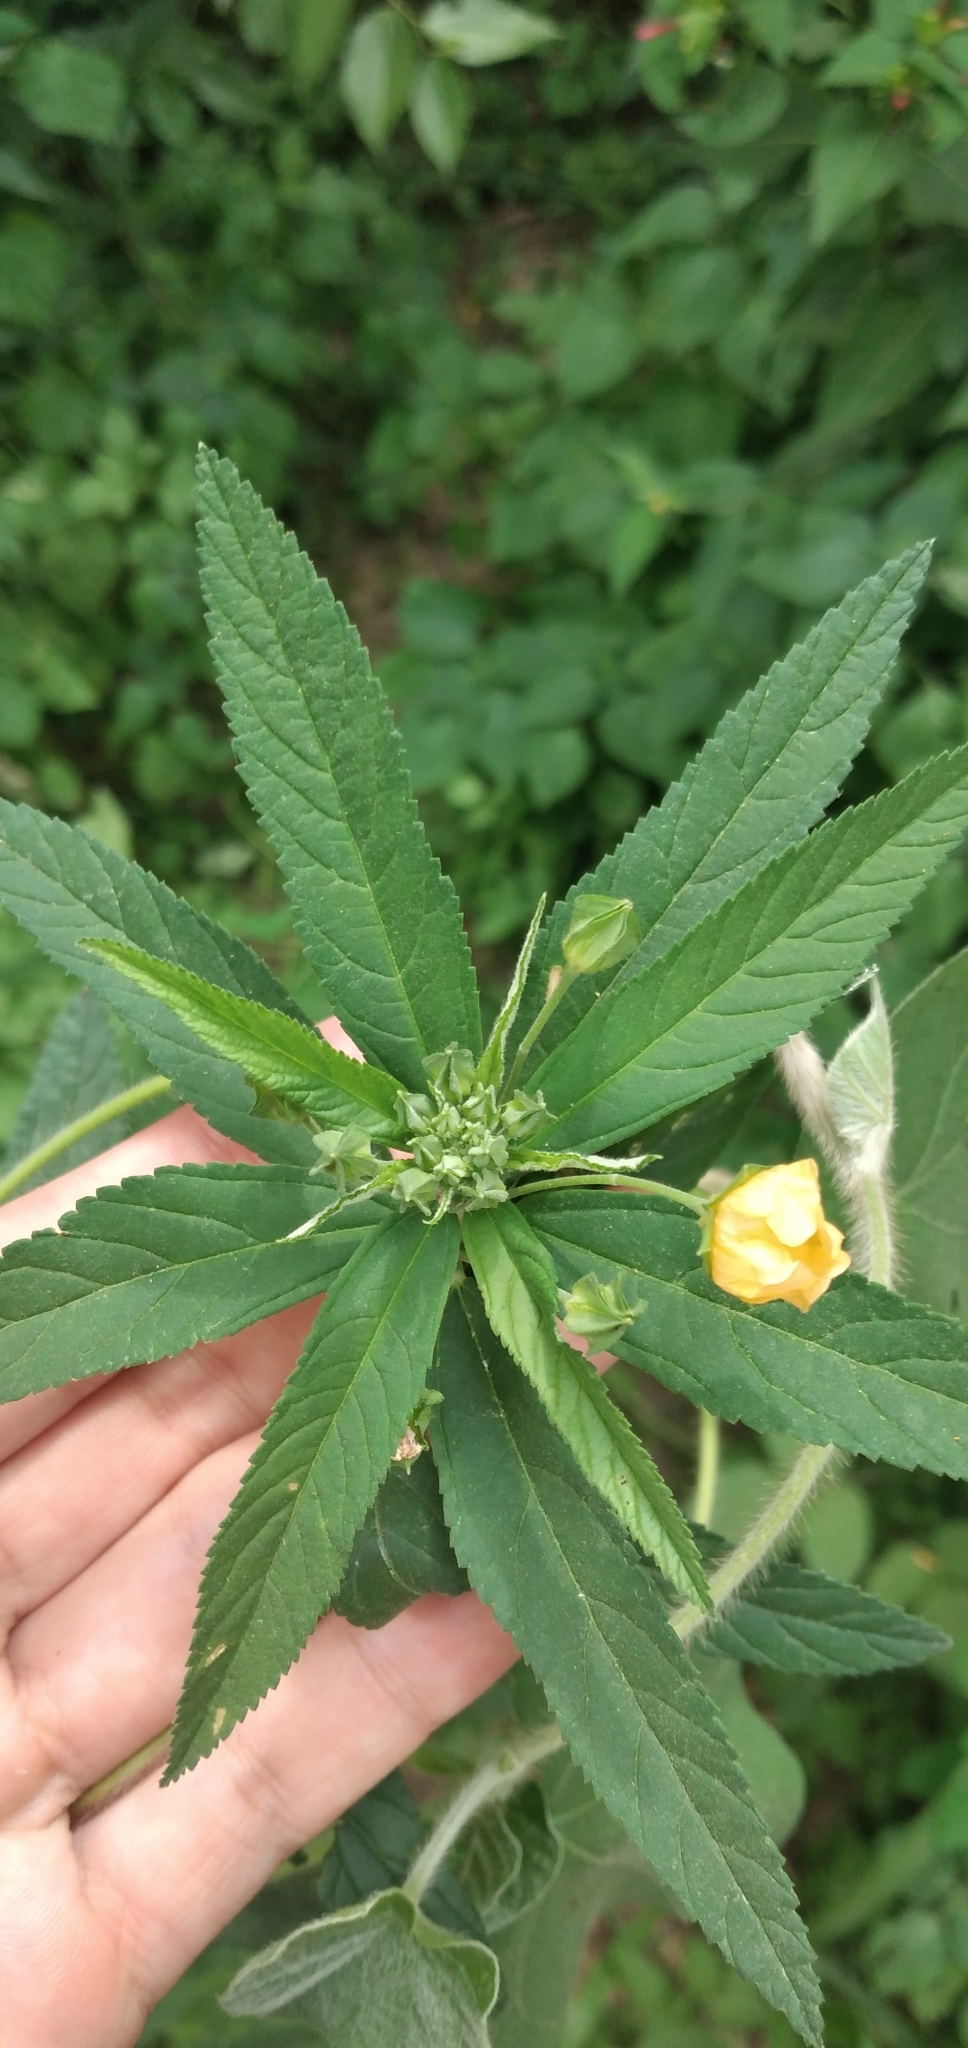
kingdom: Plantae
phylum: Tracheophyta
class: Magnoliopsida
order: Malvales
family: Malvaceae
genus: Sida
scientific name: Sida rhombifolia
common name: Queensland-hemp
